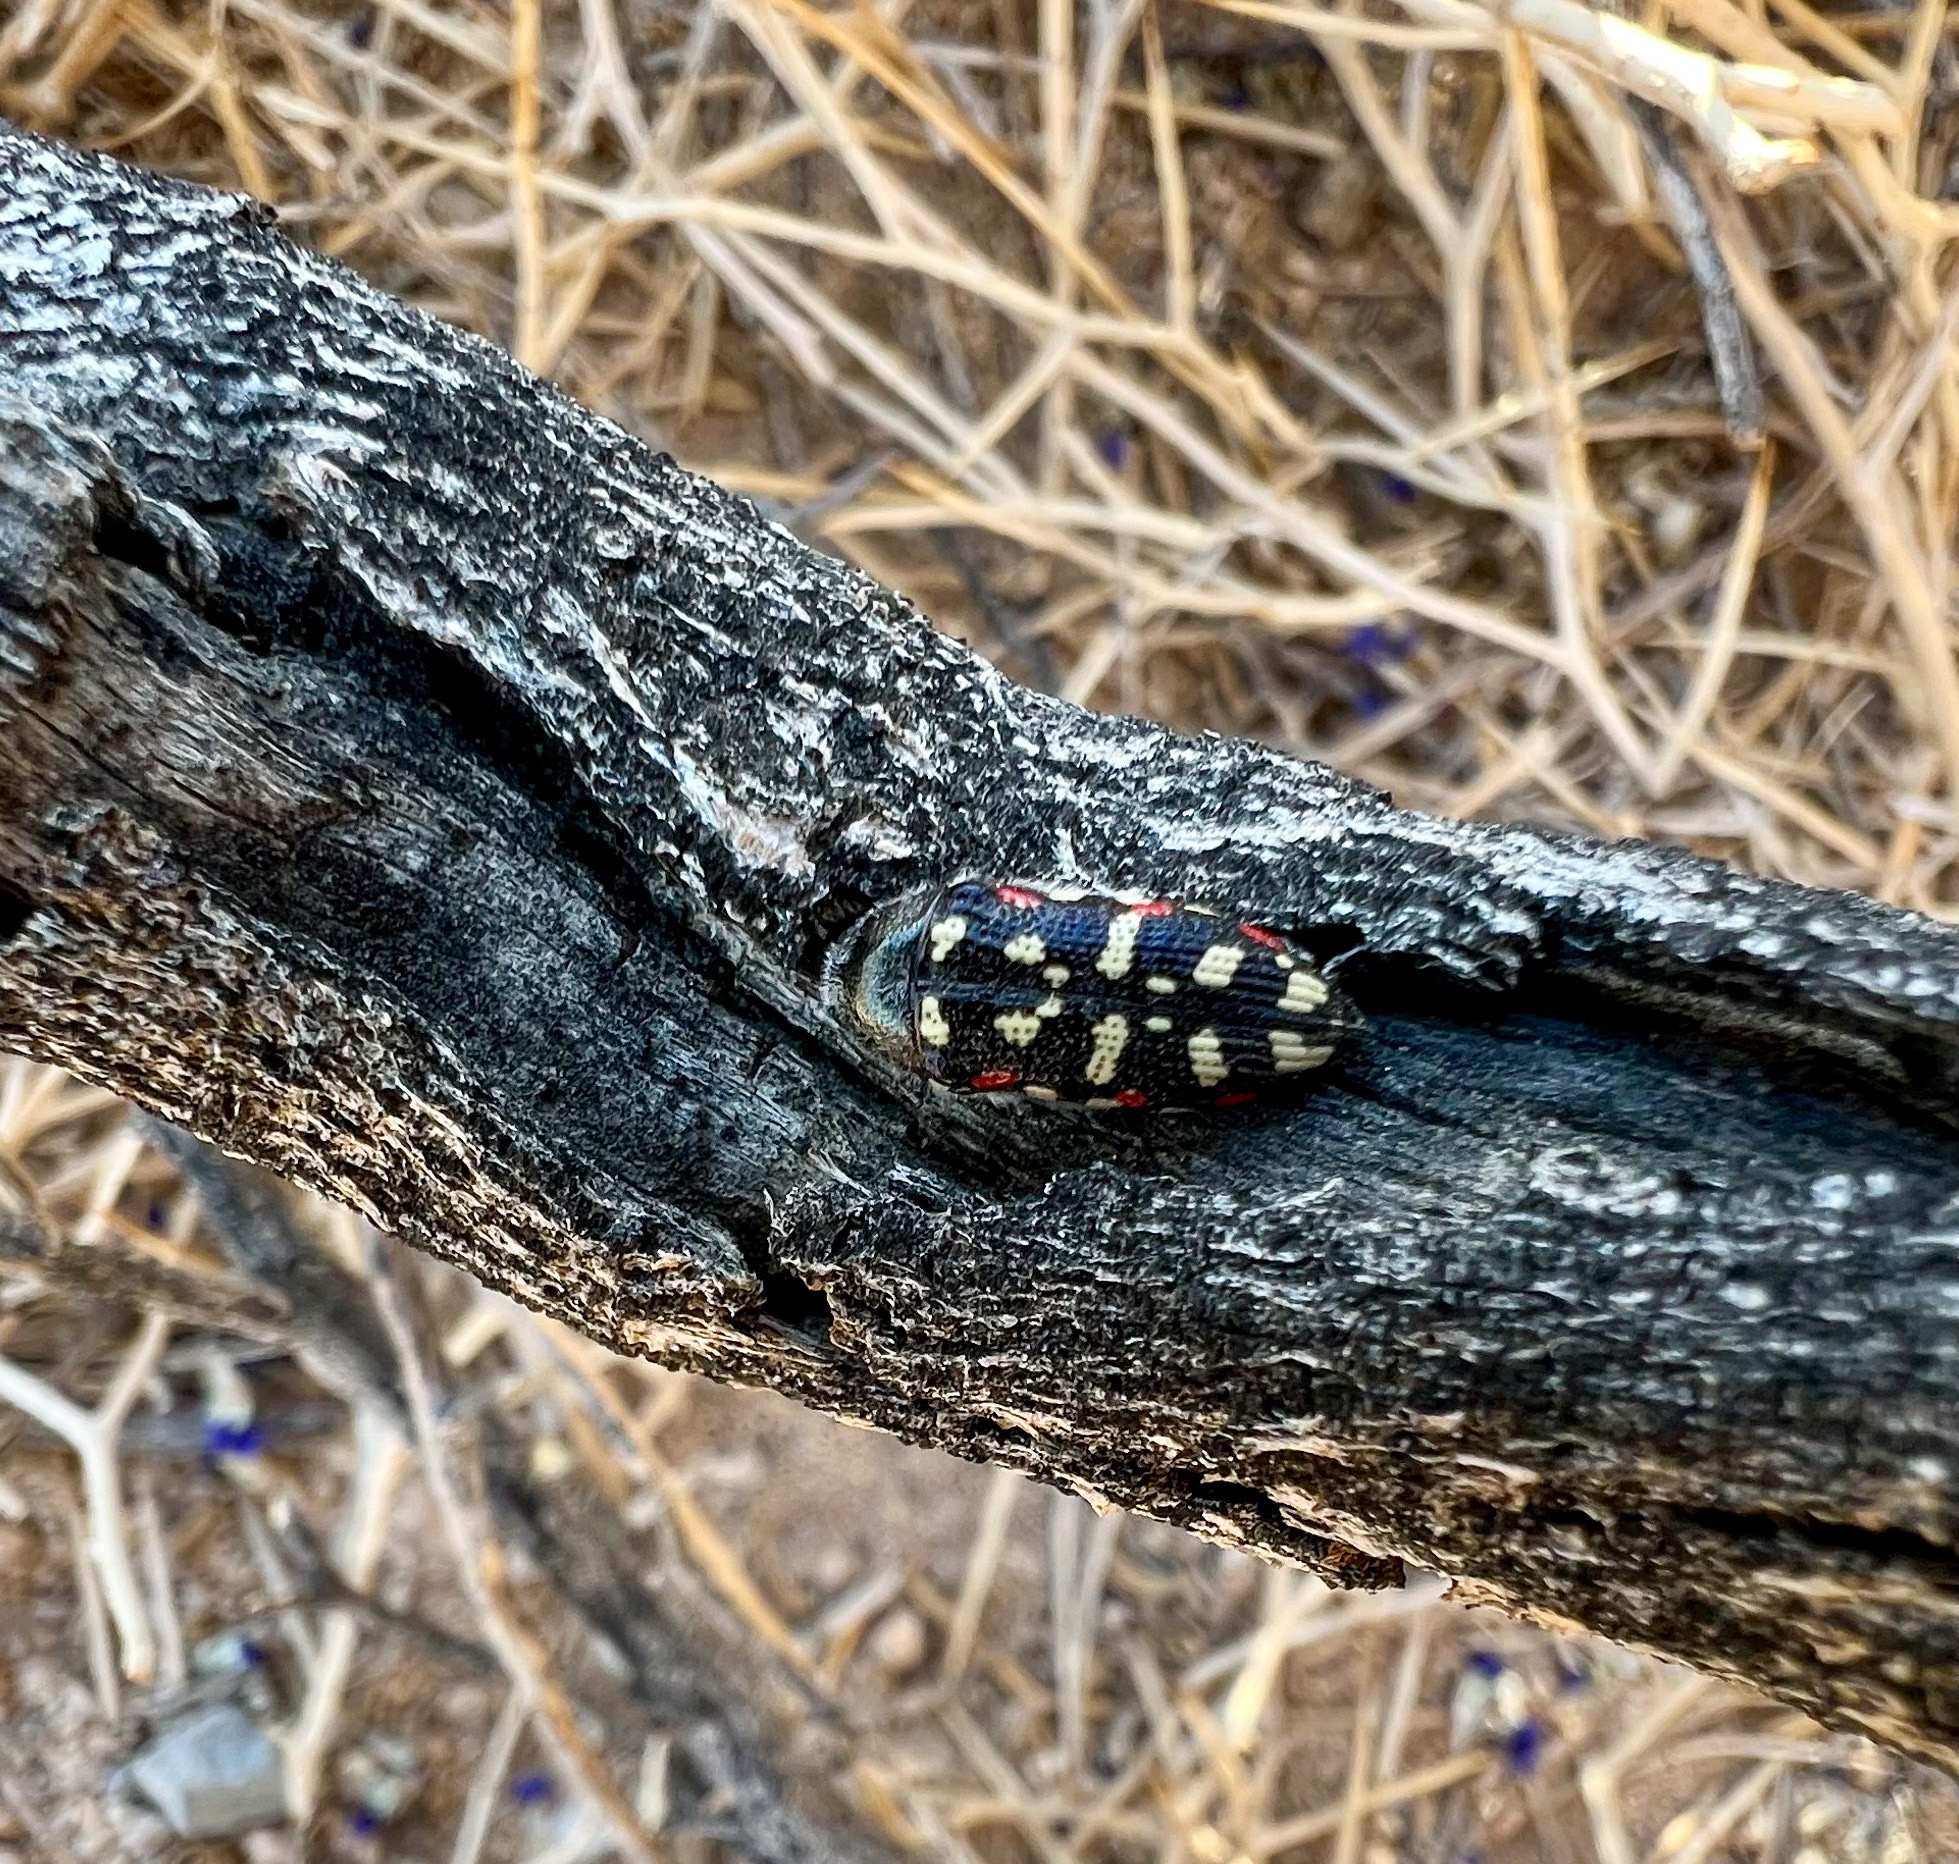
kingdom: Animalia
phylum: Arthropoda
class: Insecta
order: Coleoptera
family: Buprestidae
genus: Acmaeodera
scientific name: Acmaeodera gibbula
